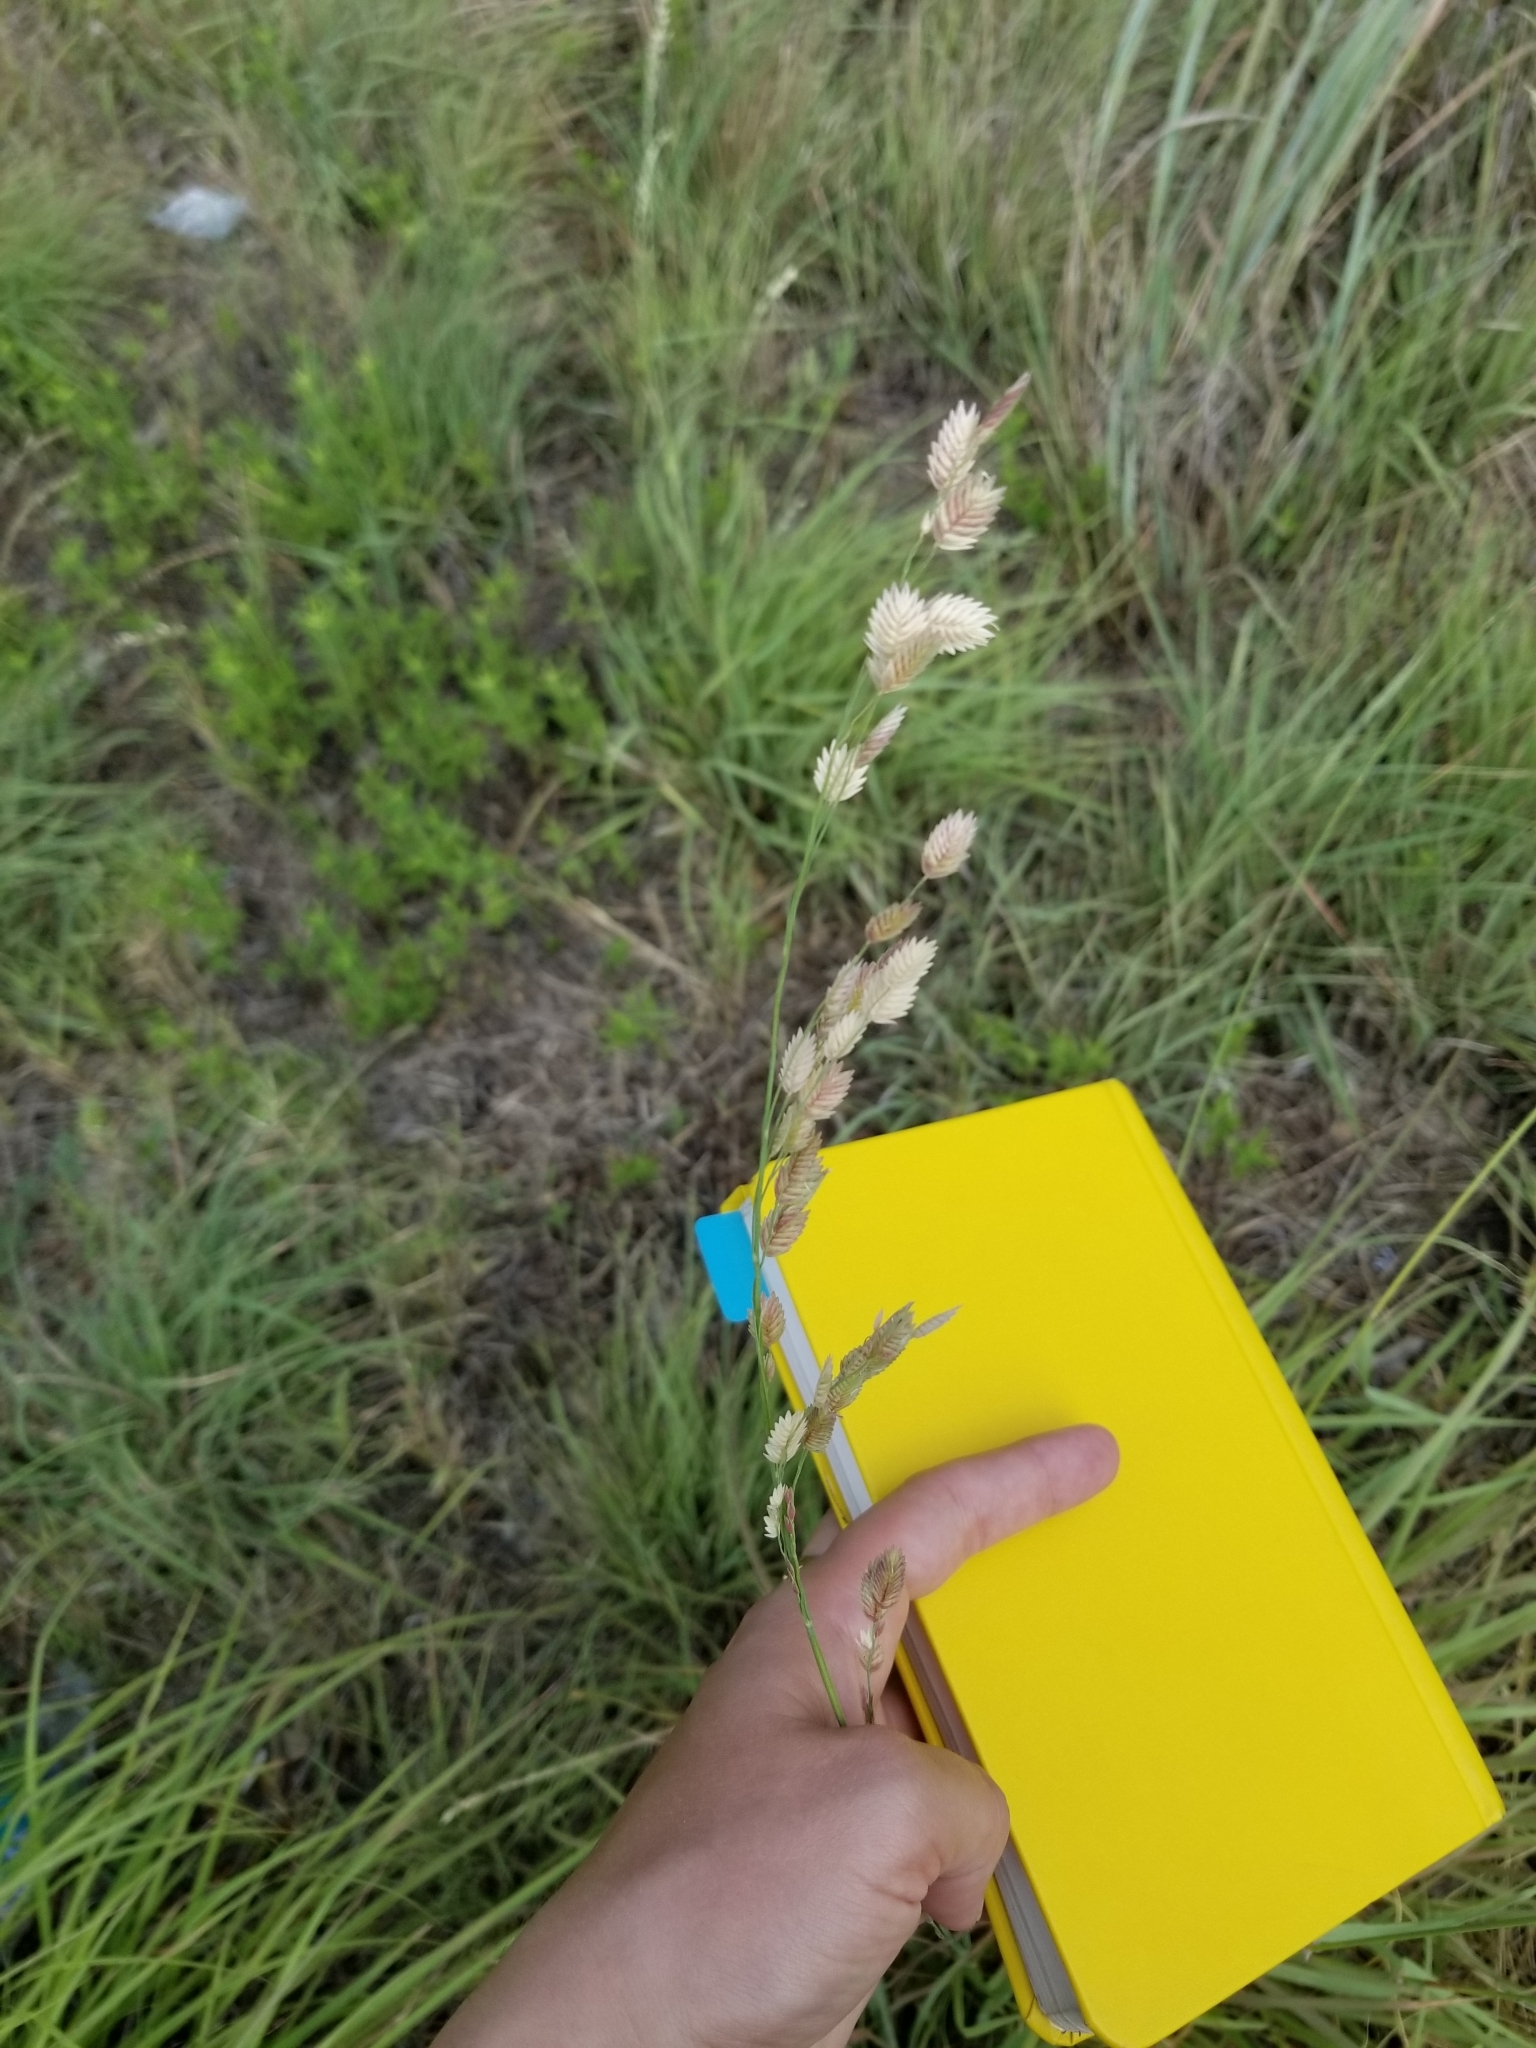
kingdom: Plantae
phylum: Tracheophyta
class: Liliopsida
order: Poales
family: Poaceae
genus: Eragrostis
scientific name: Eragrostis superba
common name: Wilman lovegrass
